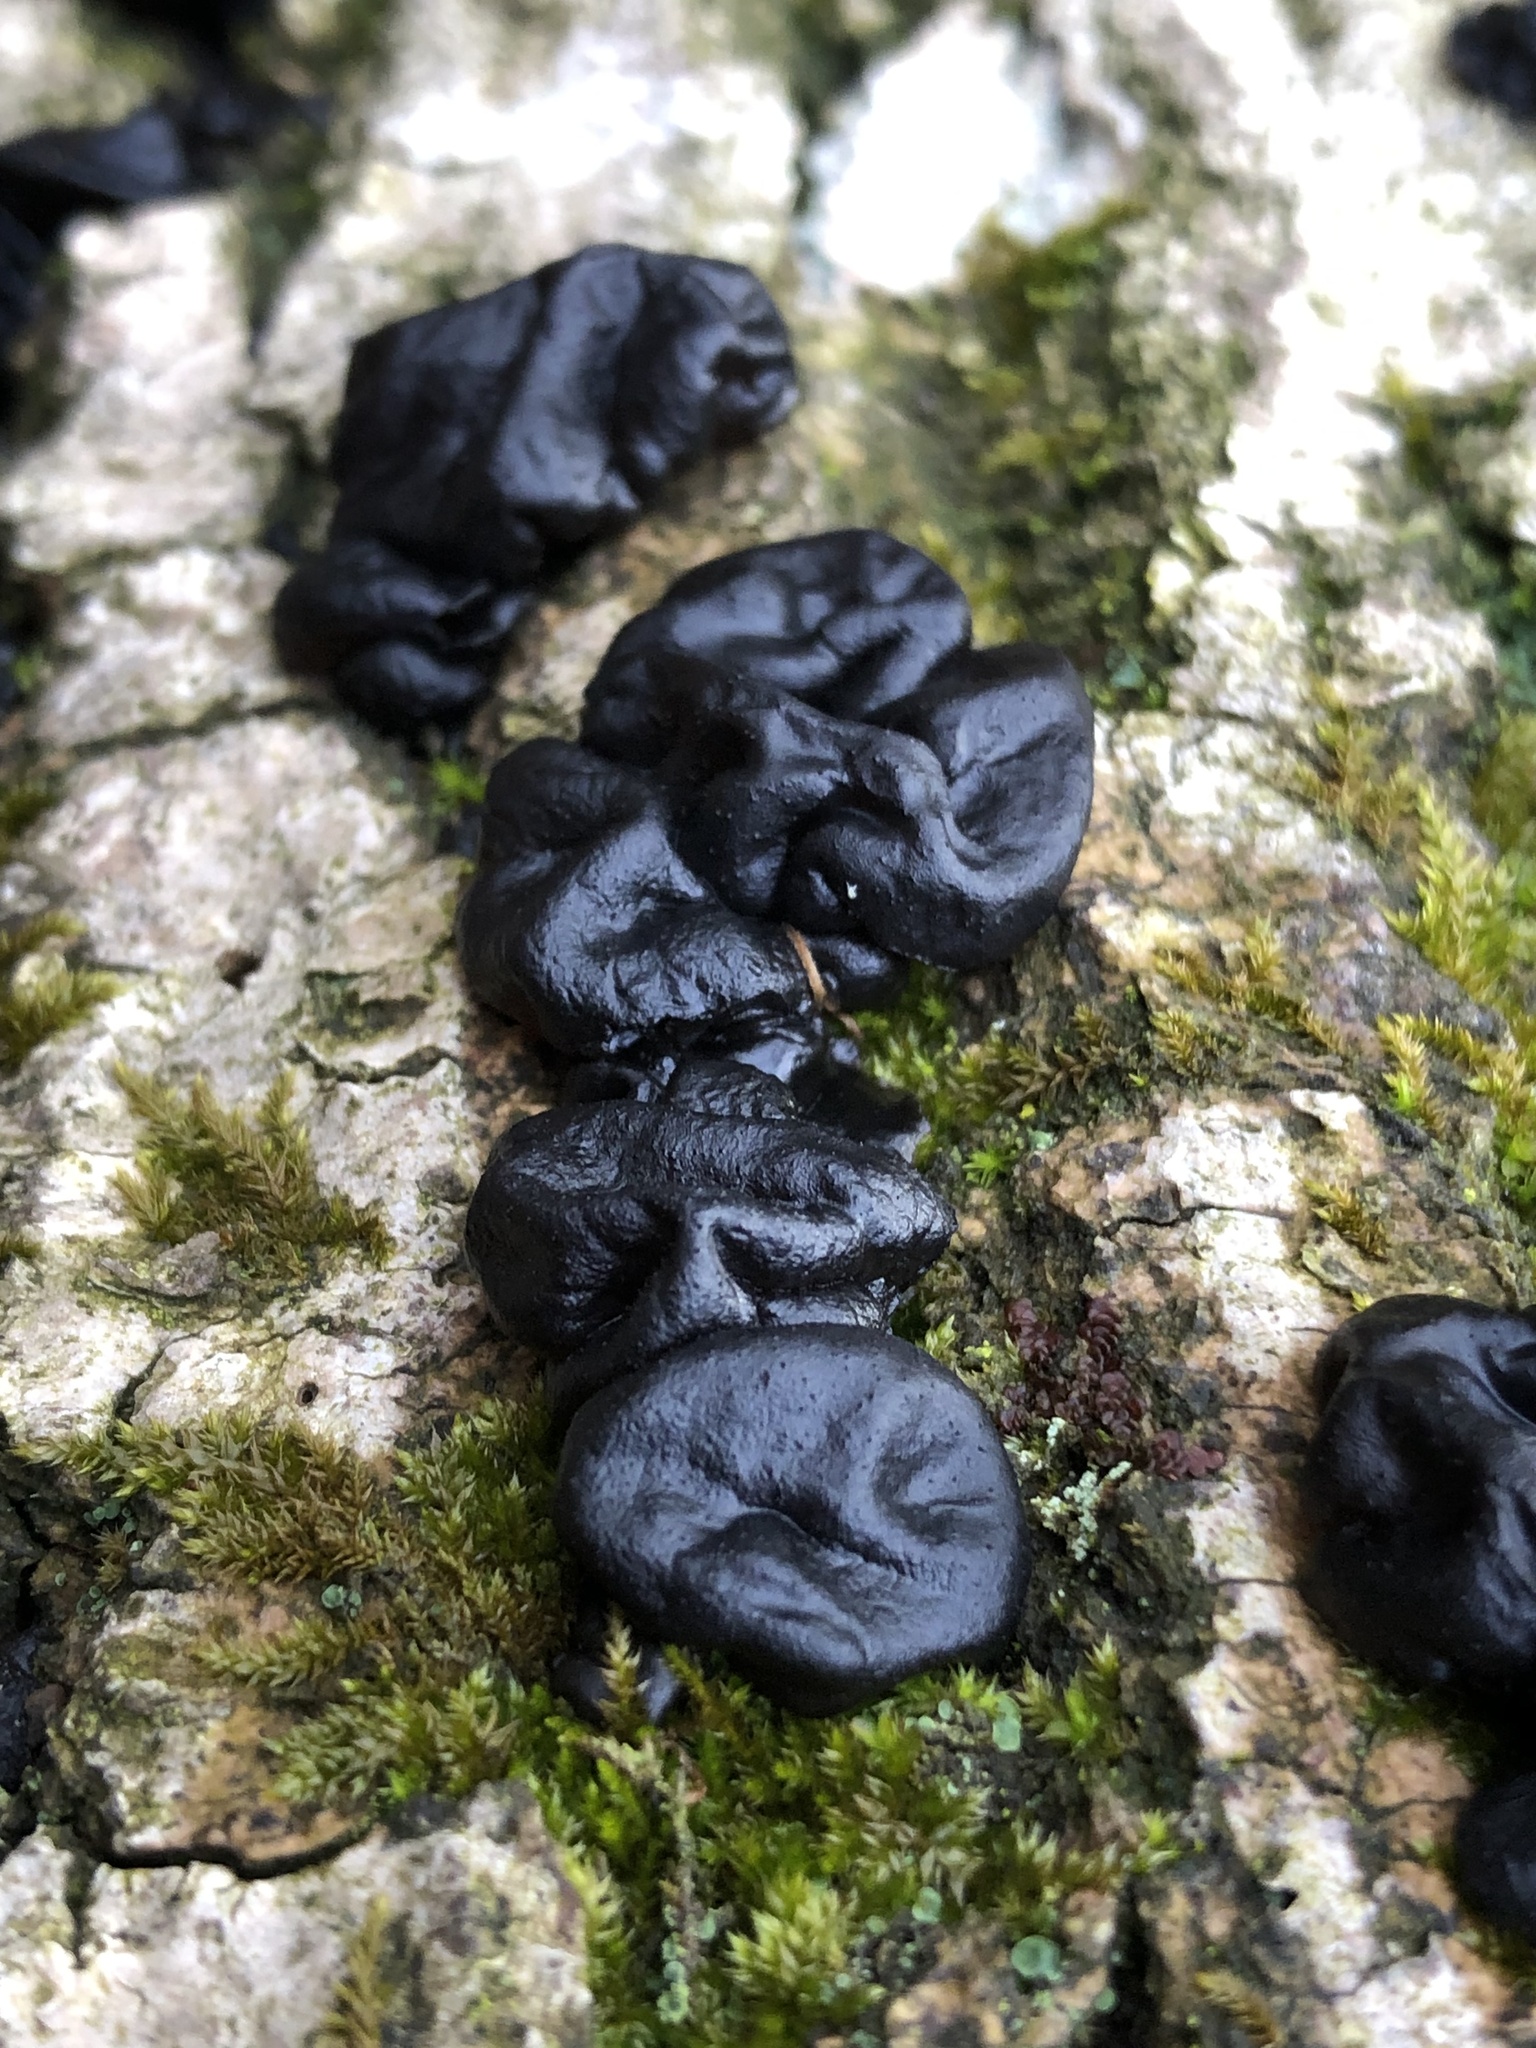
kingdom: Fungi
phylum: Basidiomycota
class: Agaricomycetes
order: Auriculariales
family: Auriculariaceae
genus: Exidia
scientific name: Exidia glandulosa
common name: Witches' butter
